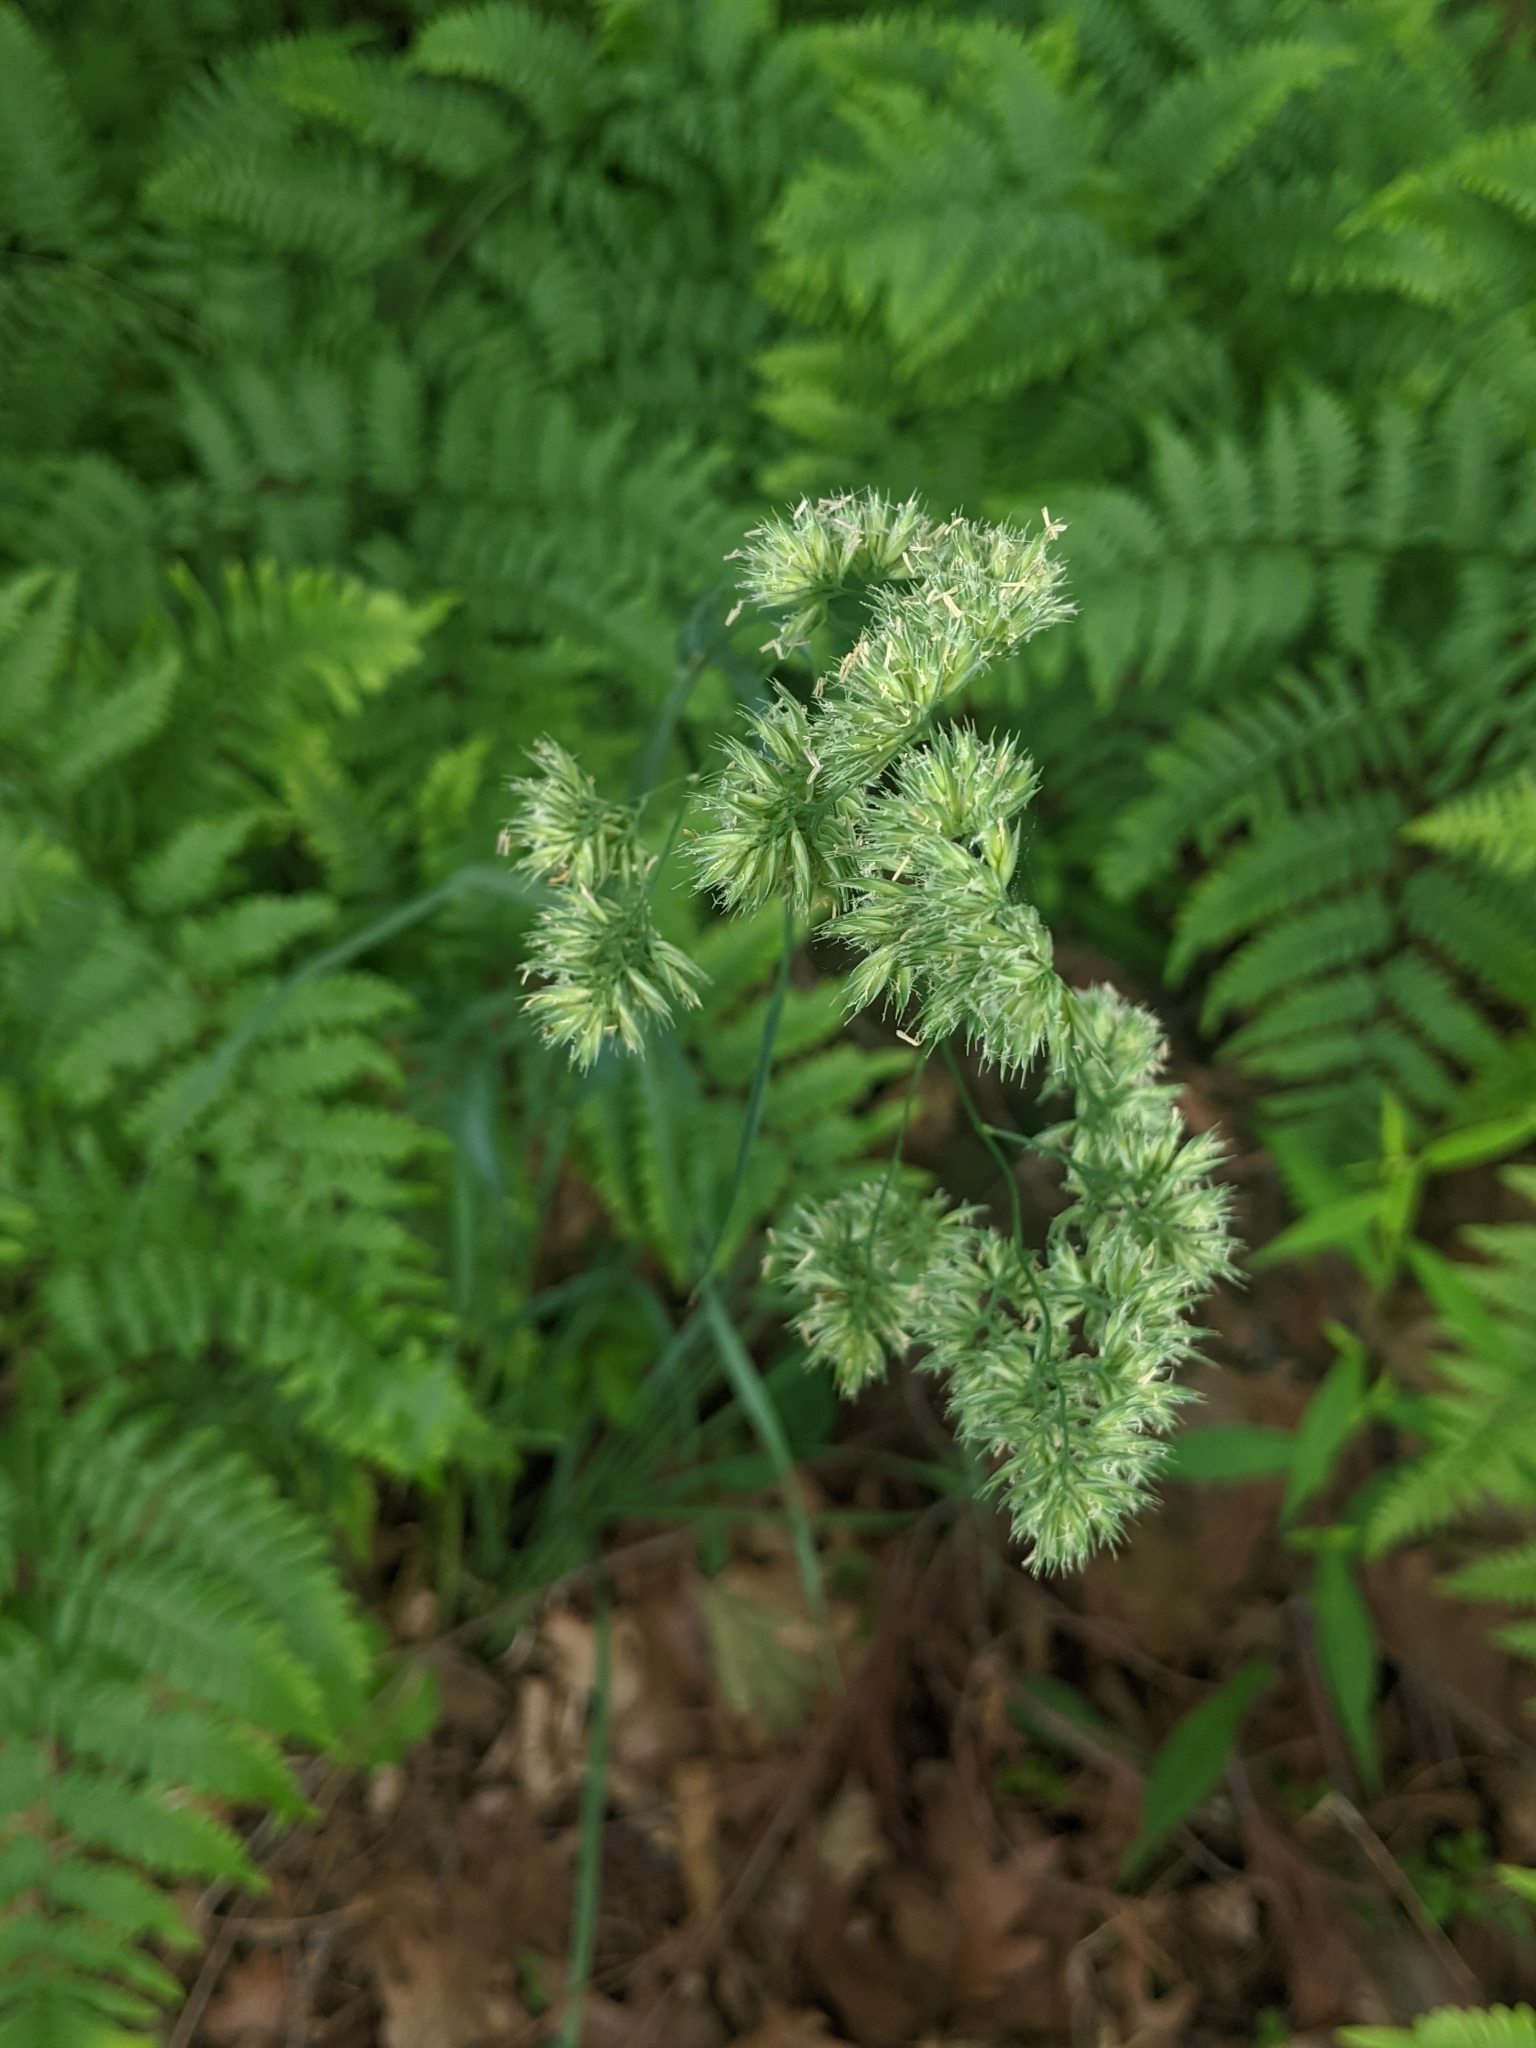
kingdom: Plantae
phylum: Tracheophyta
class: Liliopsida
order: Poales
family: Poaceae
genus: Dactylis
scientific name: Dactylis glomerata
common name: Orchardgrass
